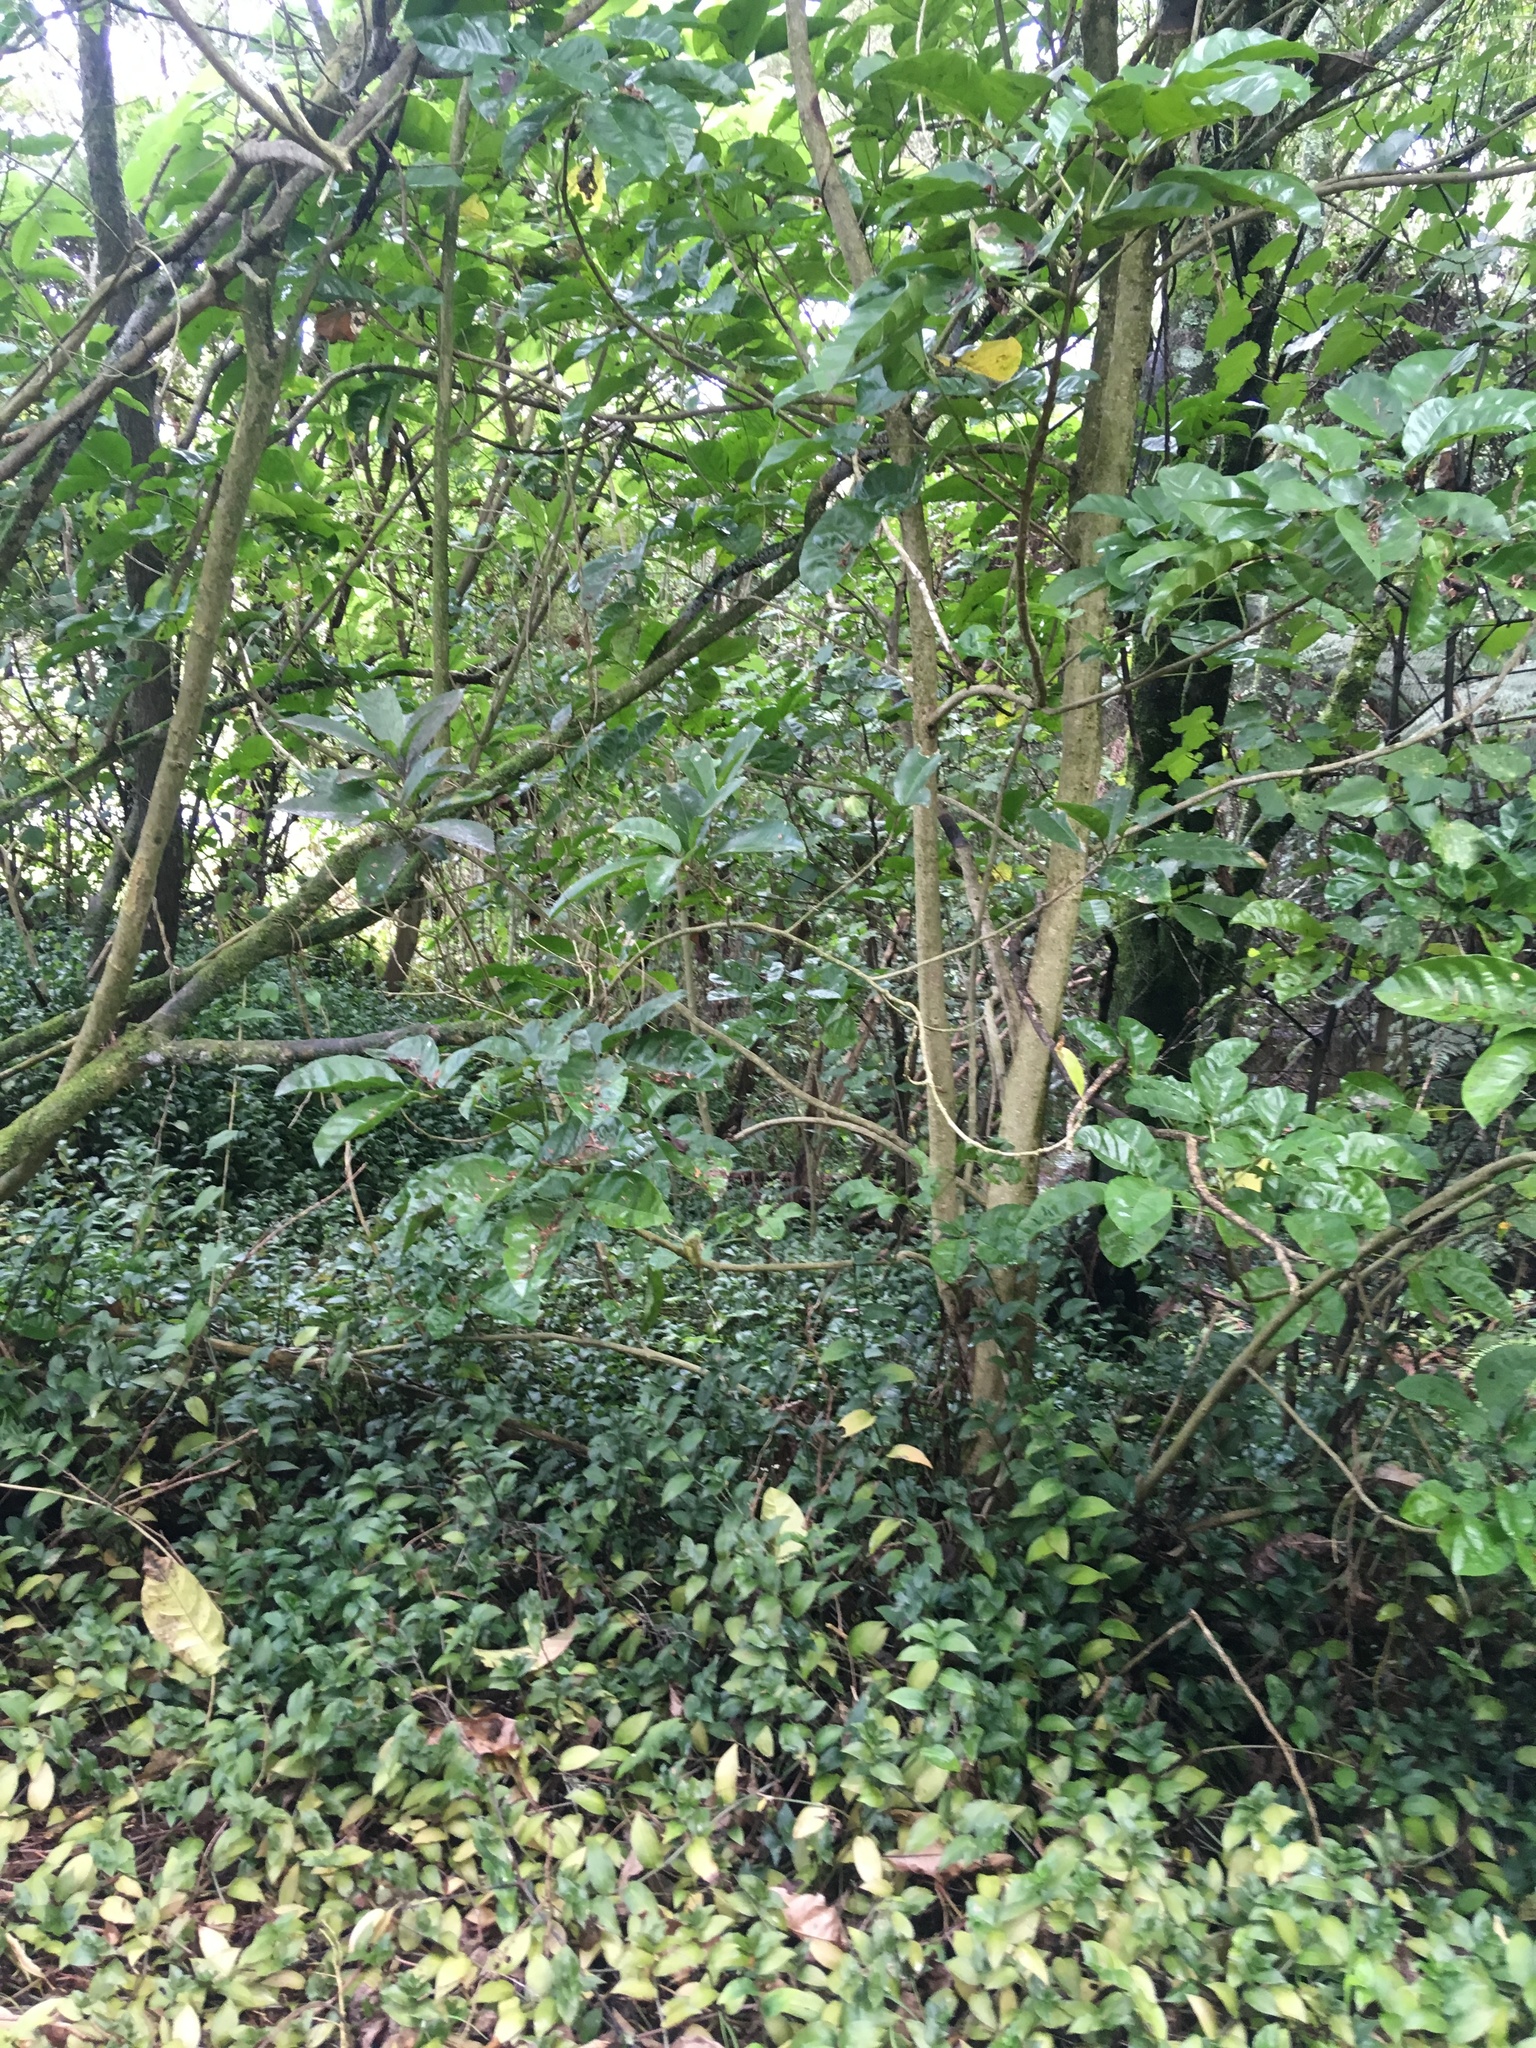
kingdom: Plantae
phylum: Tracheophyta
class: Liliopsida
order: Commelinales
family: Commelinaceae
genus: Tradescantia
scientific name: Tradescantia fluminensis
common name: Wandering-jew
